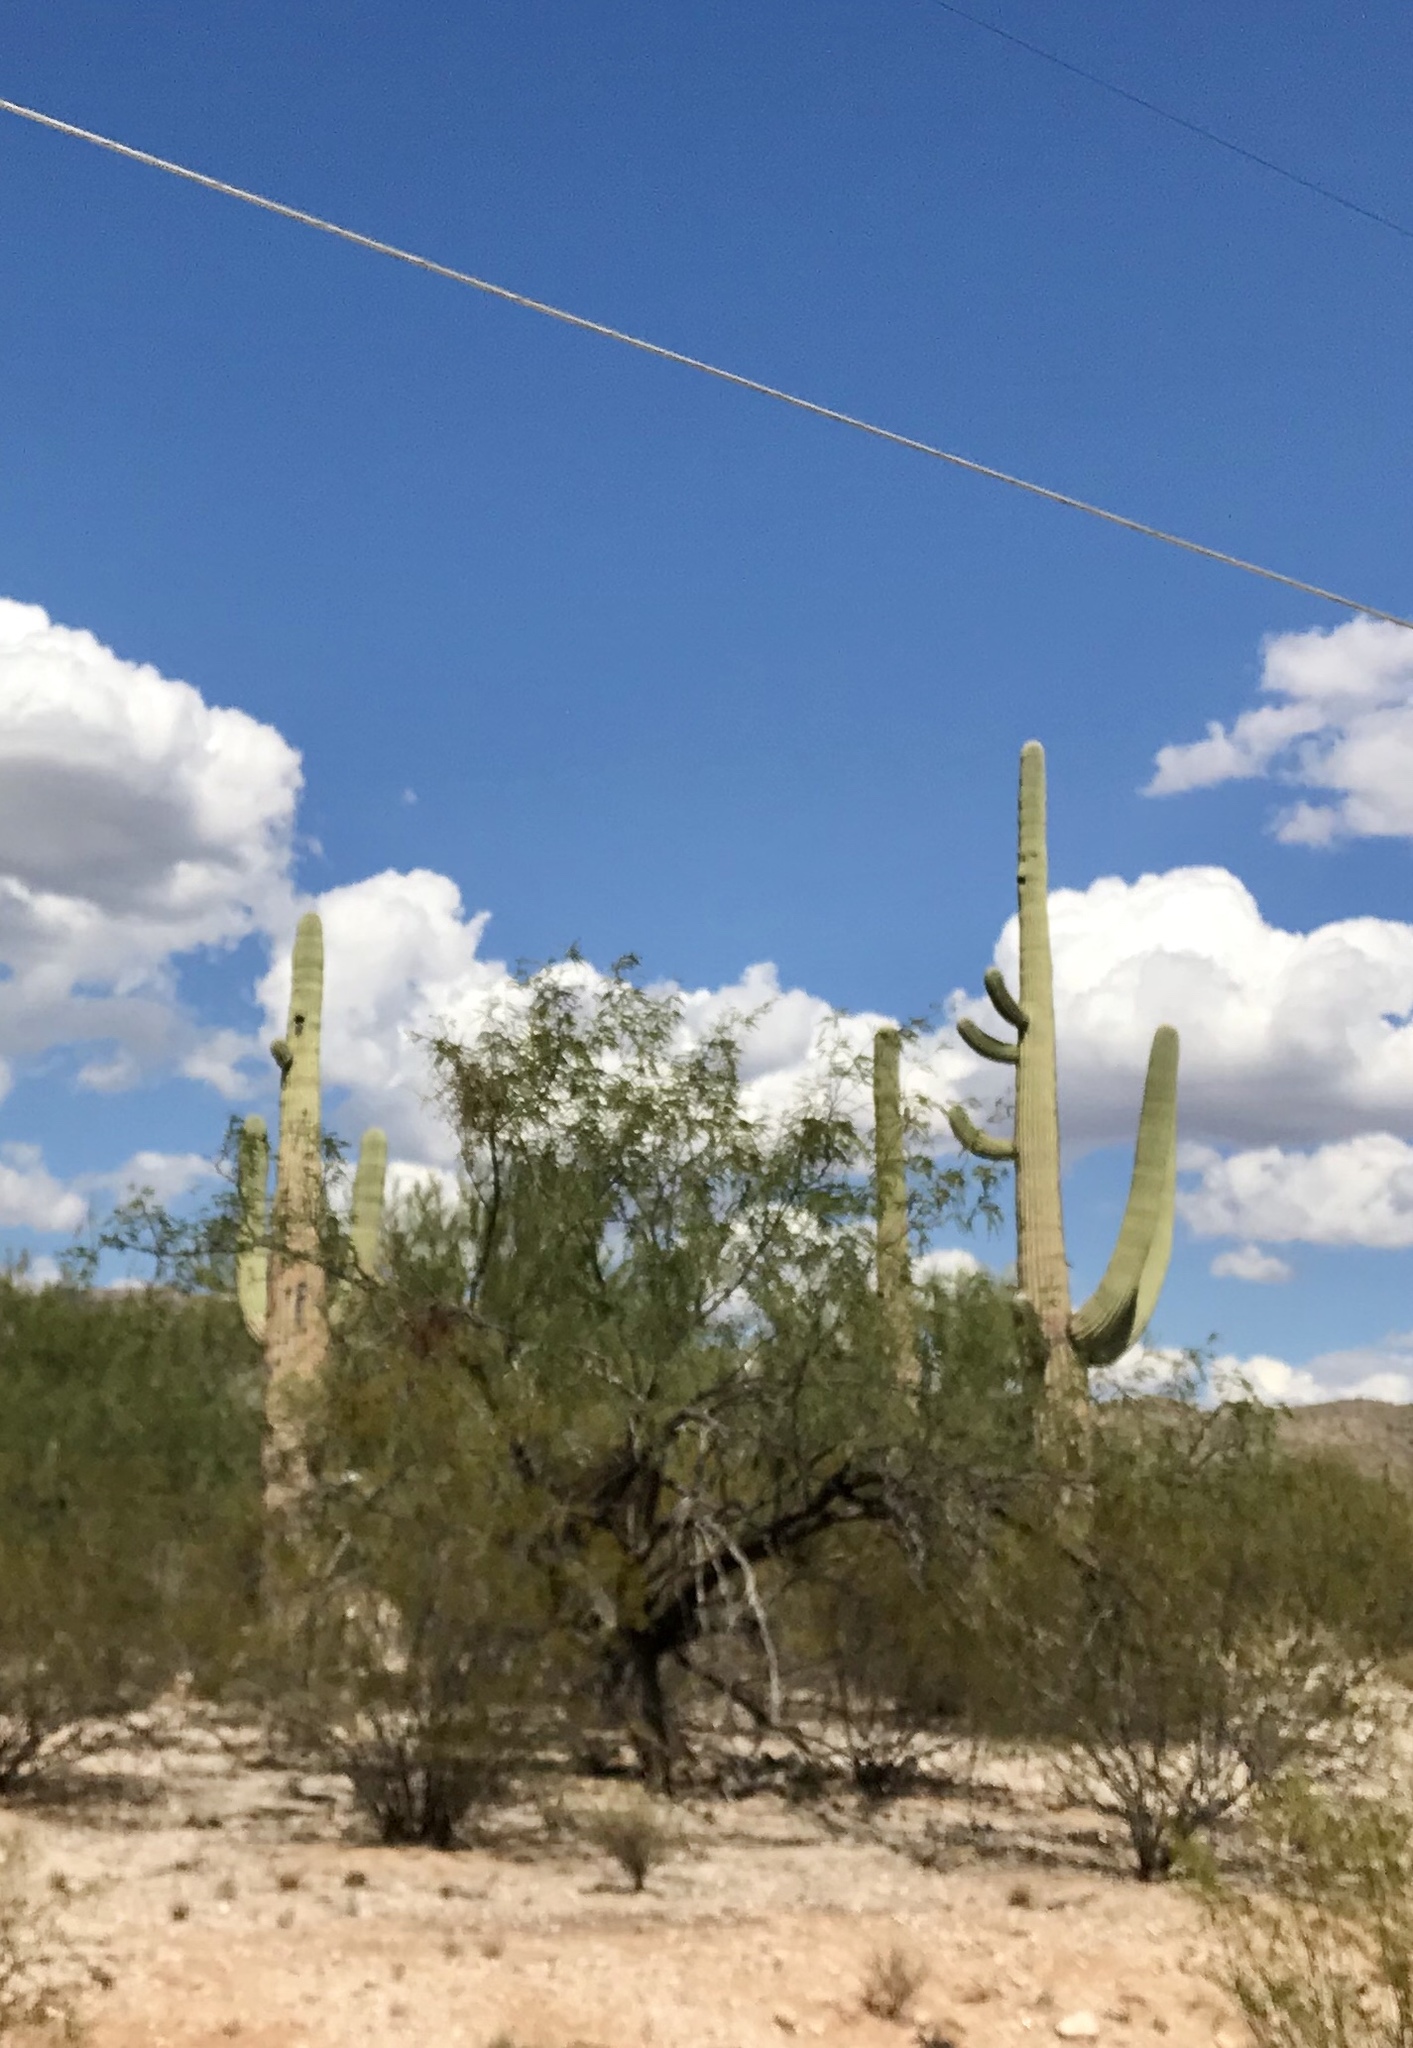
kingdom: Plantae
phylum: Tracheophyta
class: Magnoliopsida
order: Caryophyllales
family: Cactaceae
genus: Carnegiea
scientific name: Carnegiea gigantea
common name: Saguaro
